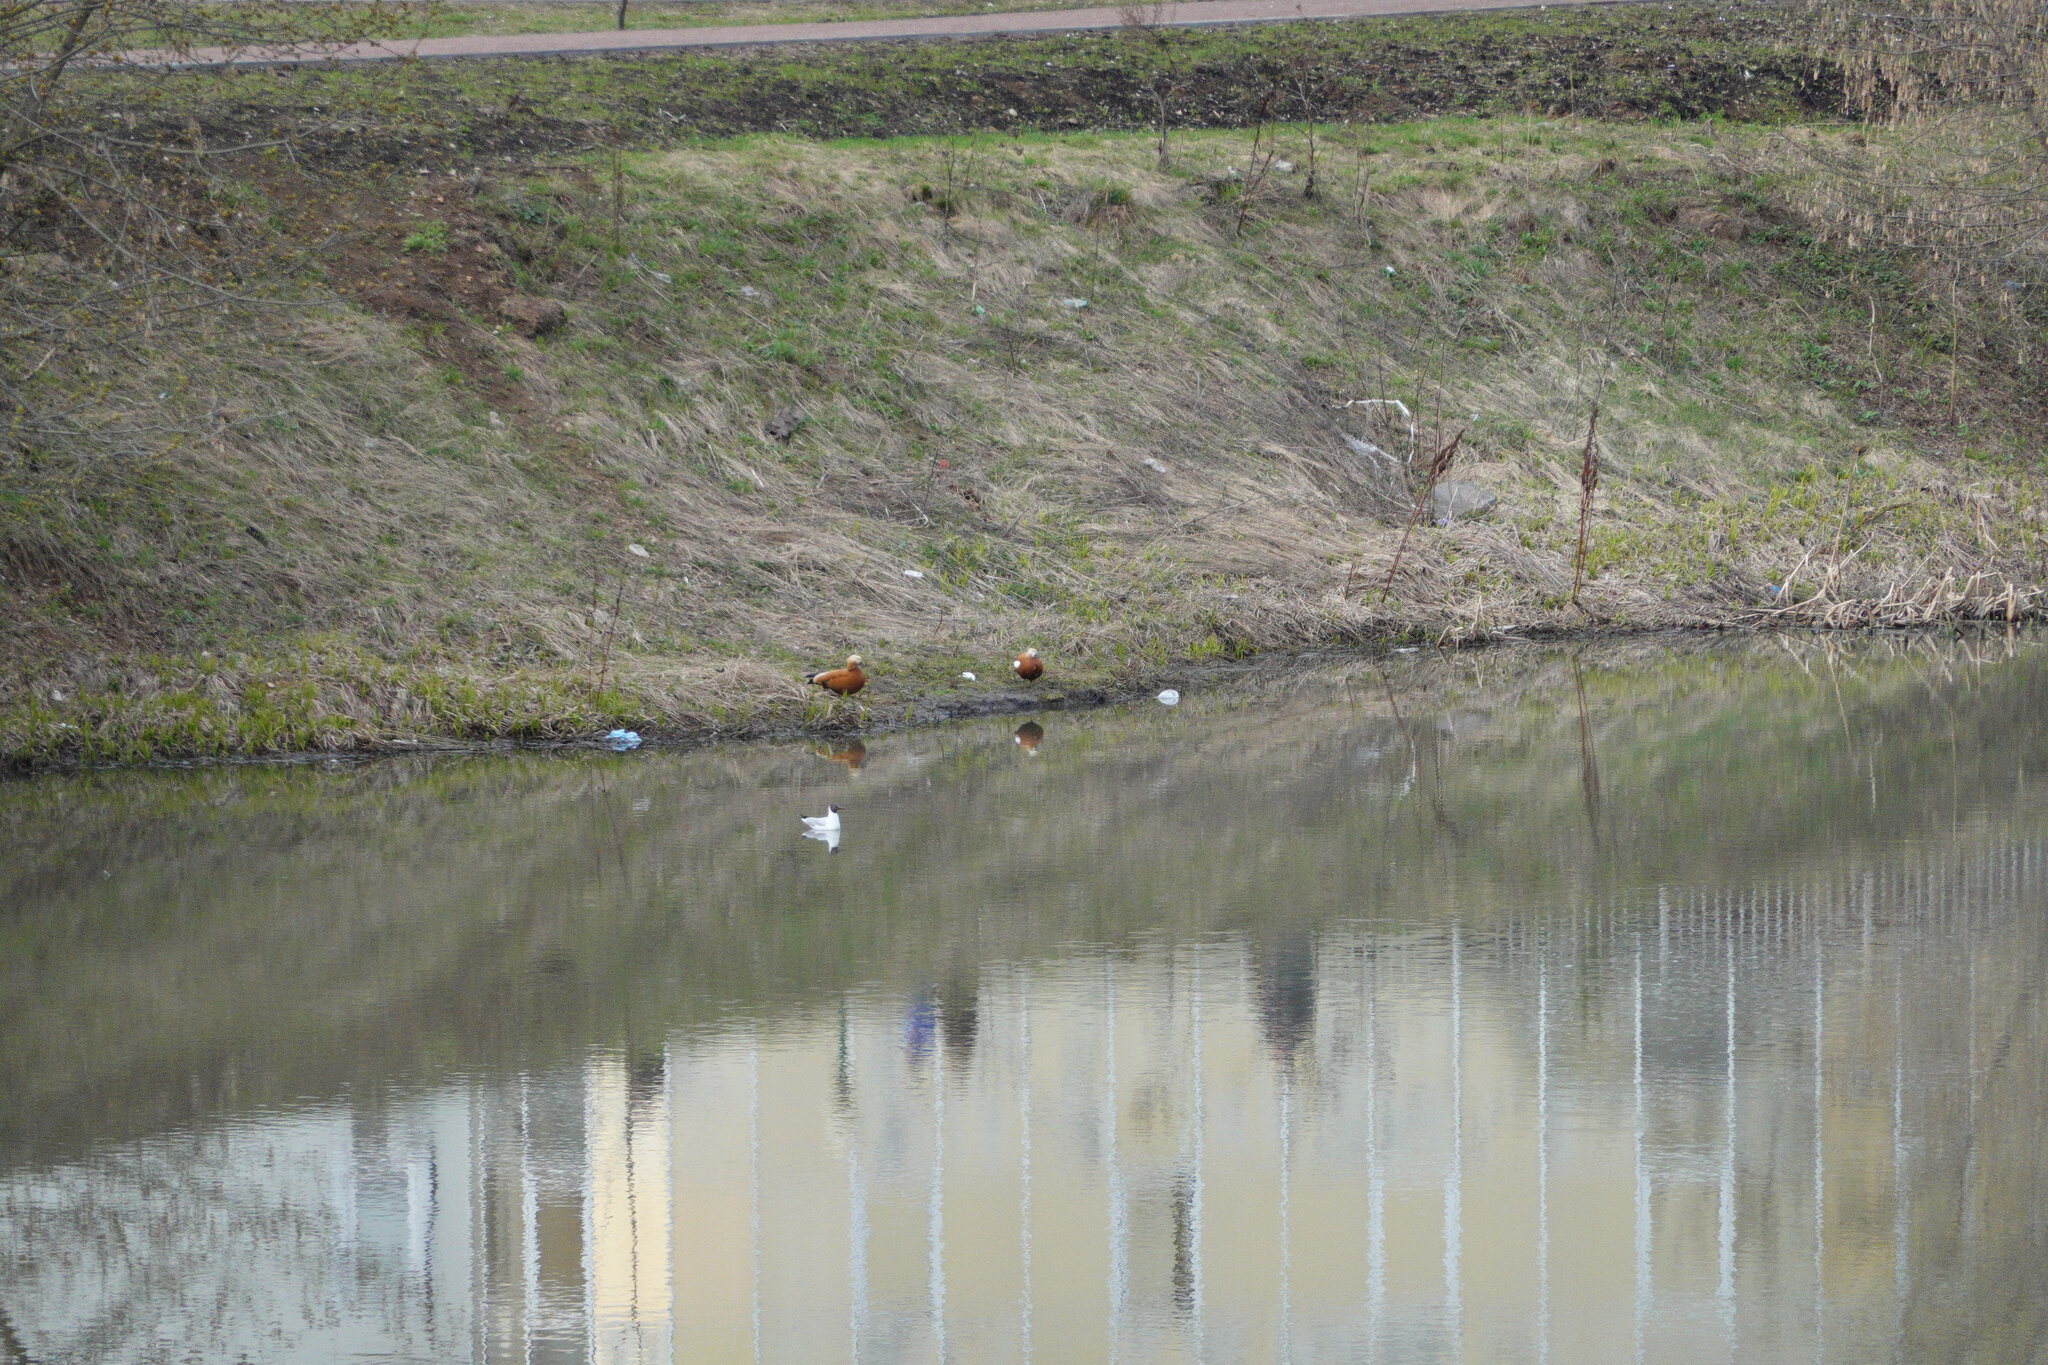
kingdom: Animalia
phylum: Chordata
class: Aves
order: Anseriformes
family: Anatidae
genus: Tadorna
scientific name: Tadorna ferruginea
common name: Ruddy shelduck
